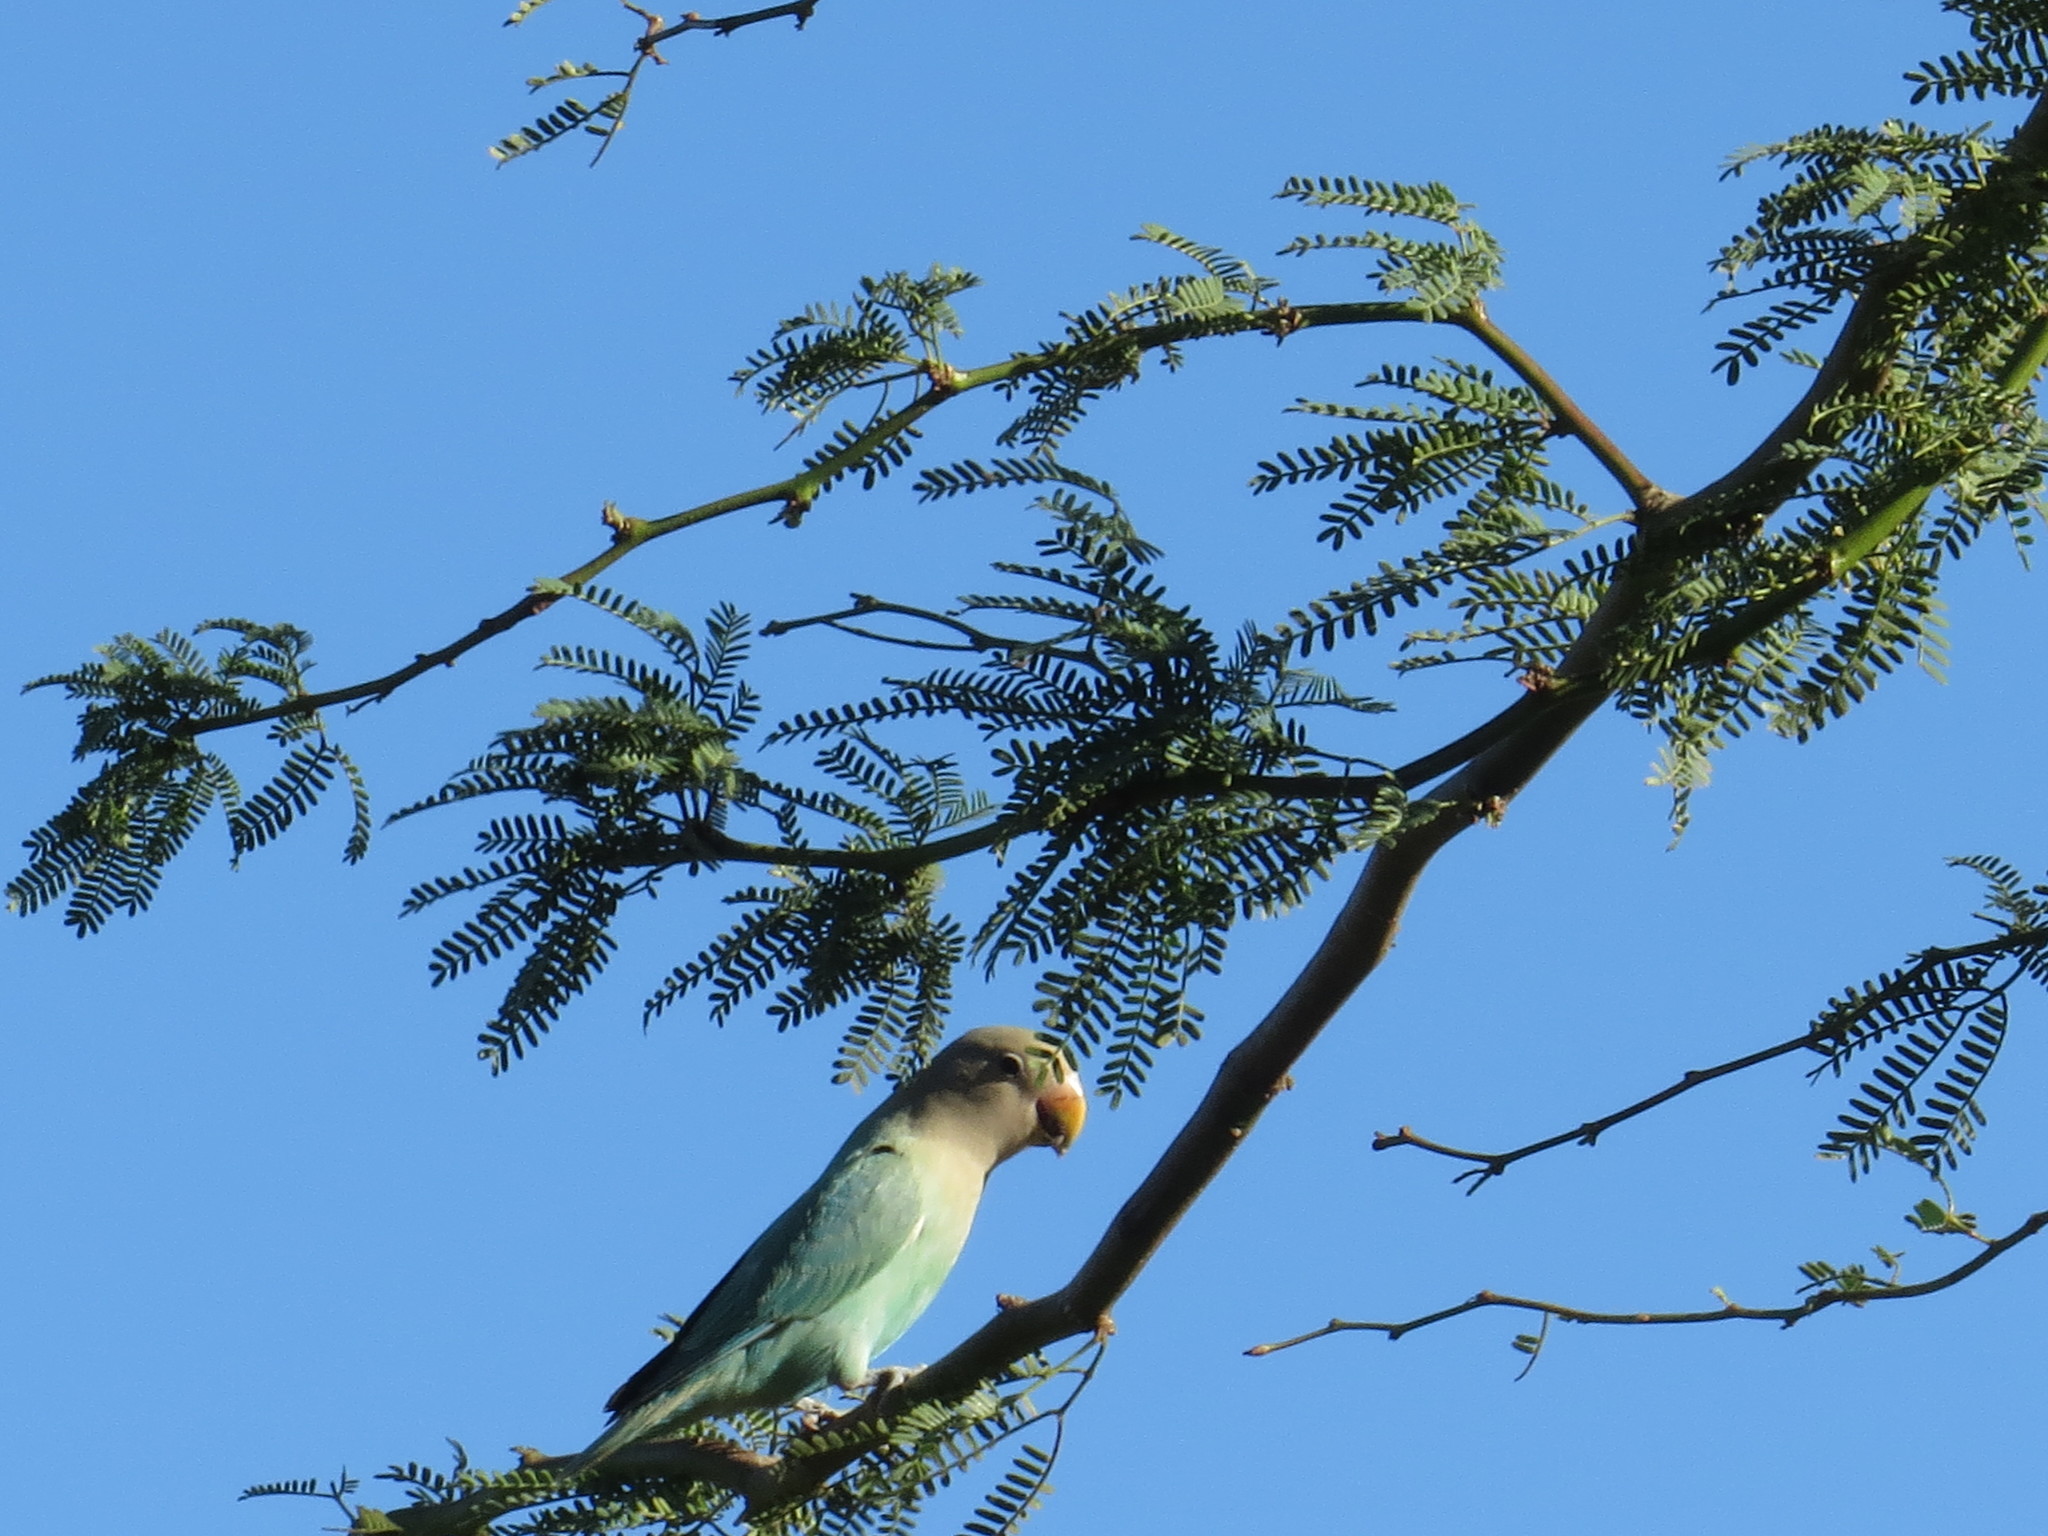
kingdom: Animalia
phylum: Chordata
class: Aves
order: Psittaciformes
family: Psittacidae
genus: Agapornis
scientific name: Agapornis roseicollis
